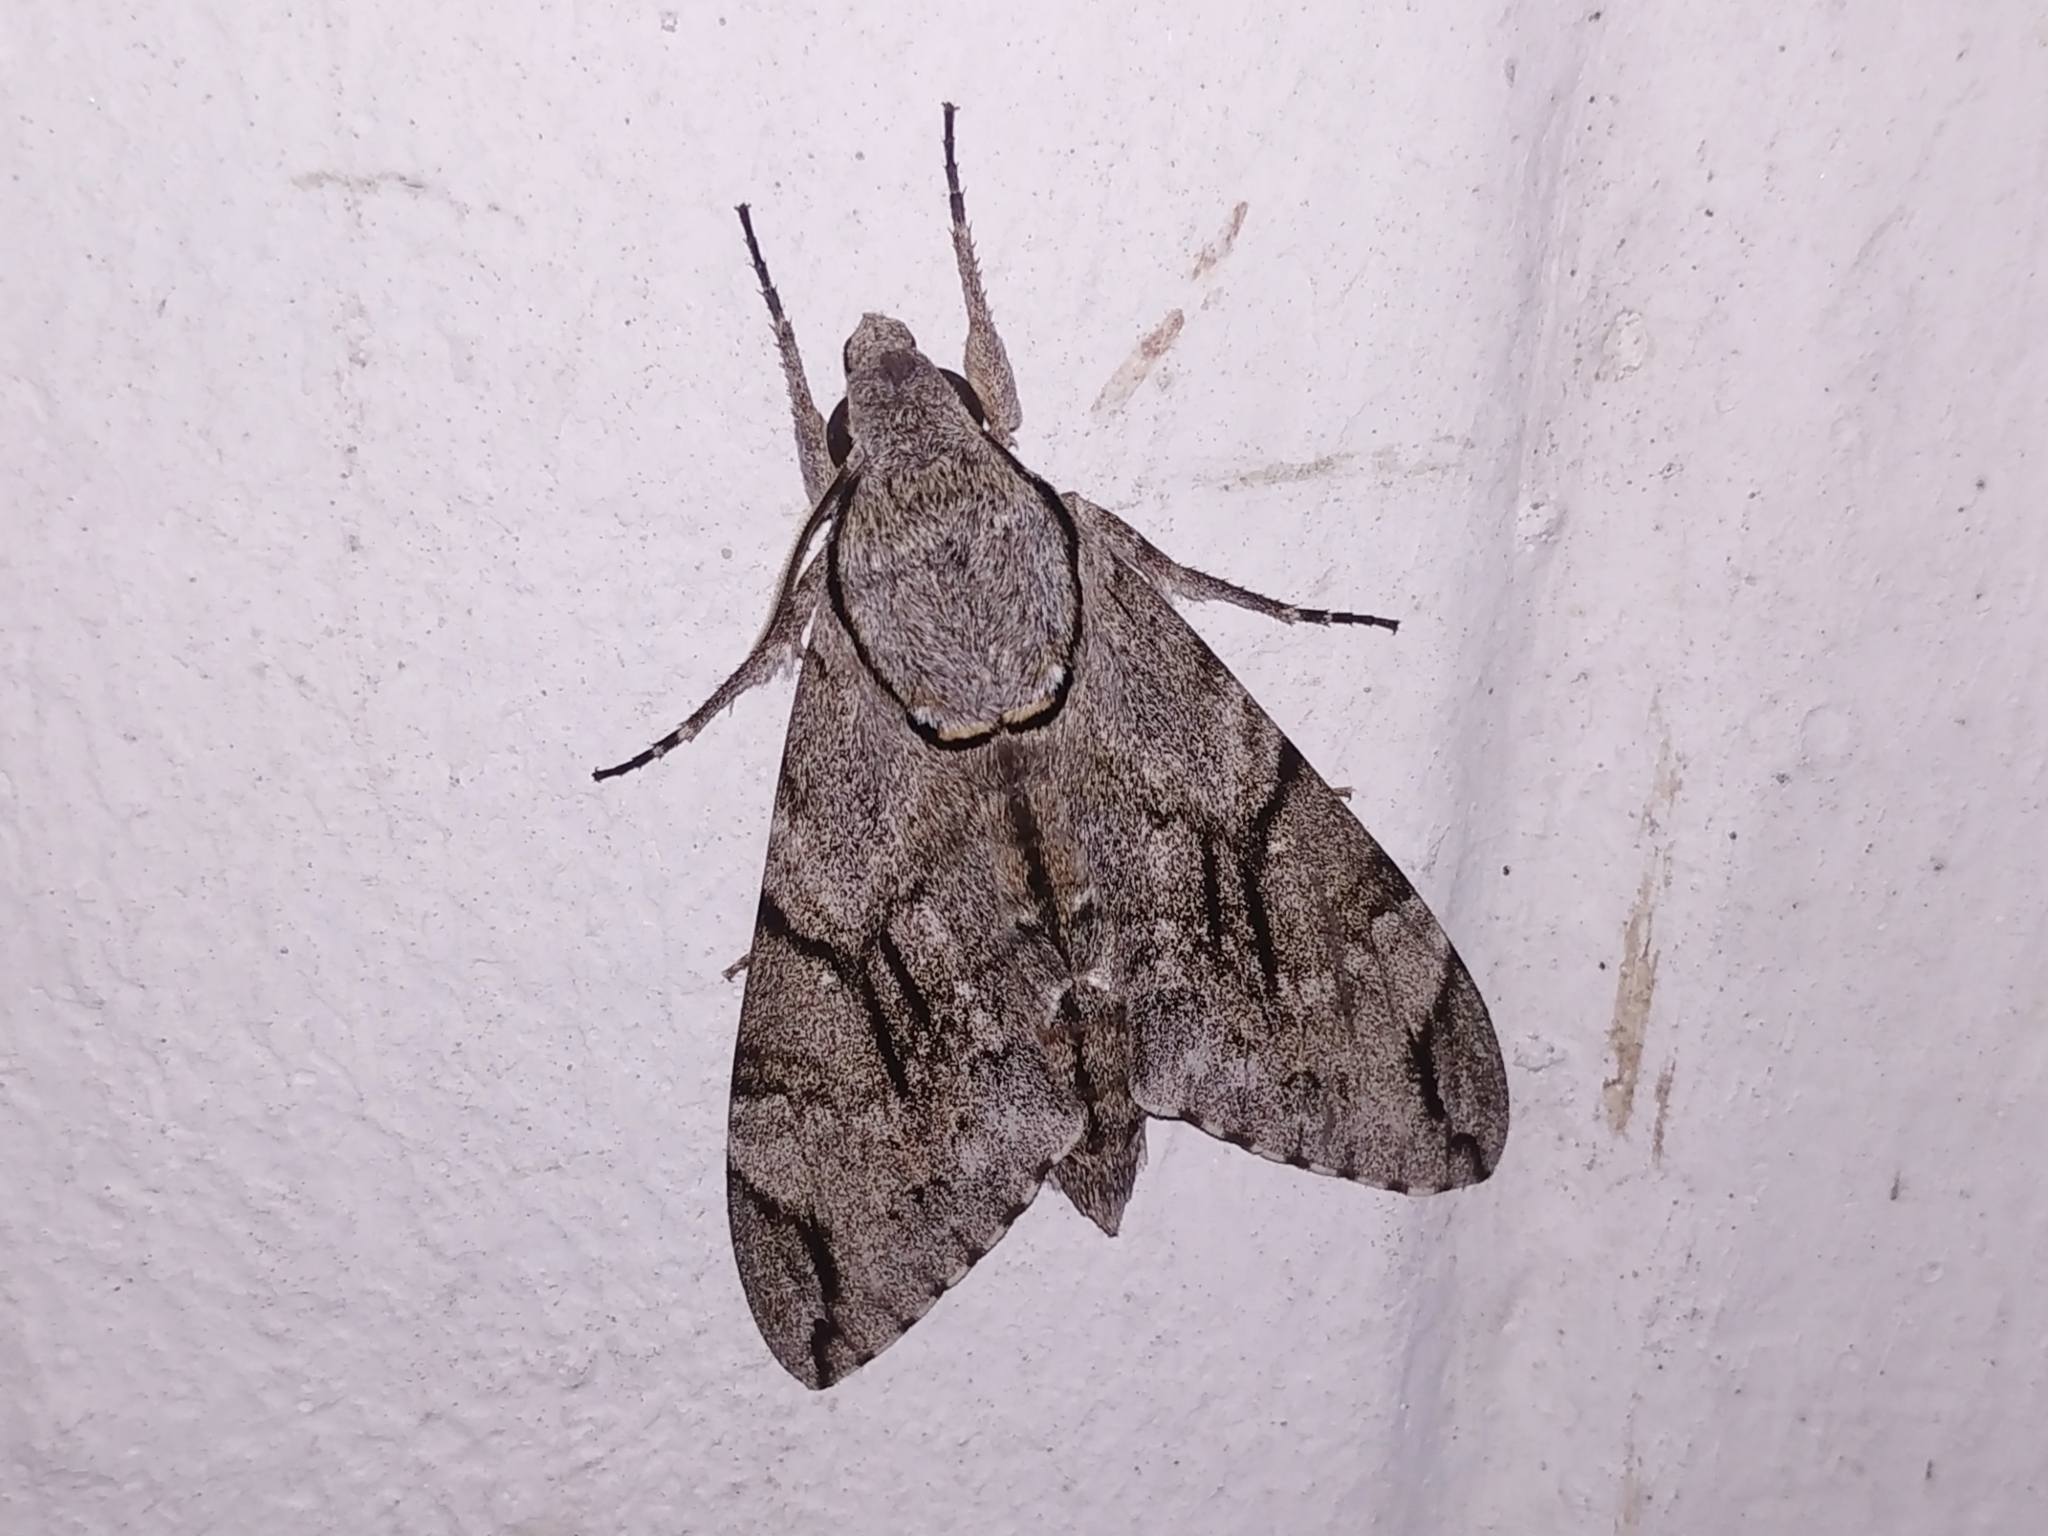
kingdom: Animalia
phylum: Arthropoda
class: Insecta
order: Lepidoptera
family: Sphingidae
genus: Psilogramma
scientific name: Psilogramma increta
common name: Gray hawk moth
